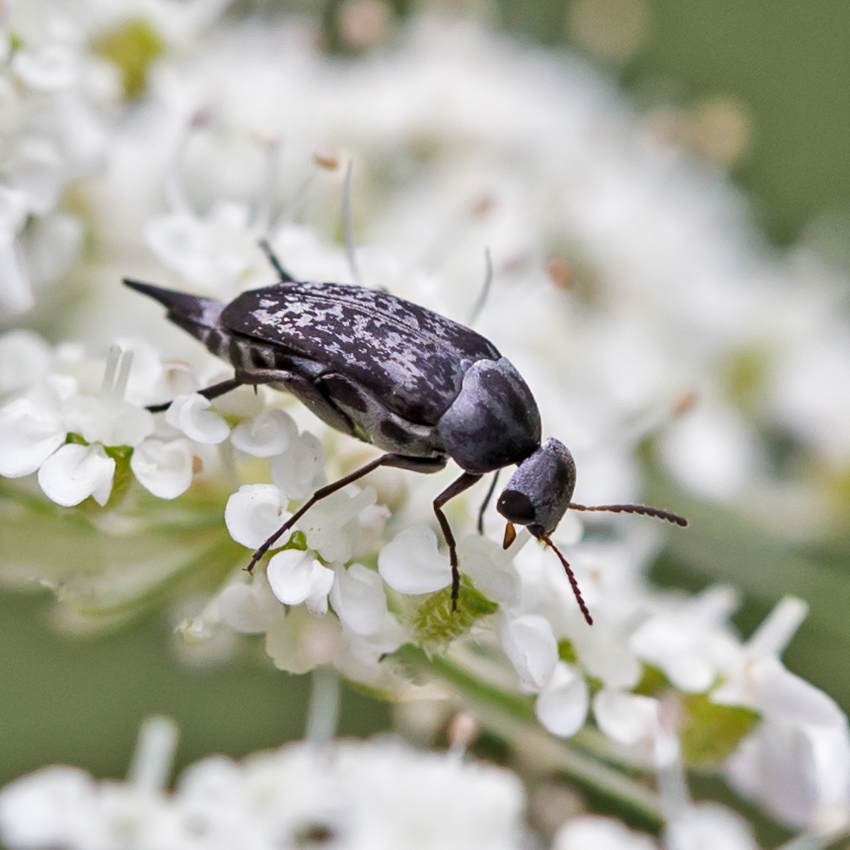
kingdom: Animalia
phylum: Arthropoda
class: Insecta
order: Coleoptera
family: Mordellidae
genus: Mordella
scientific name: Mordella marginata
